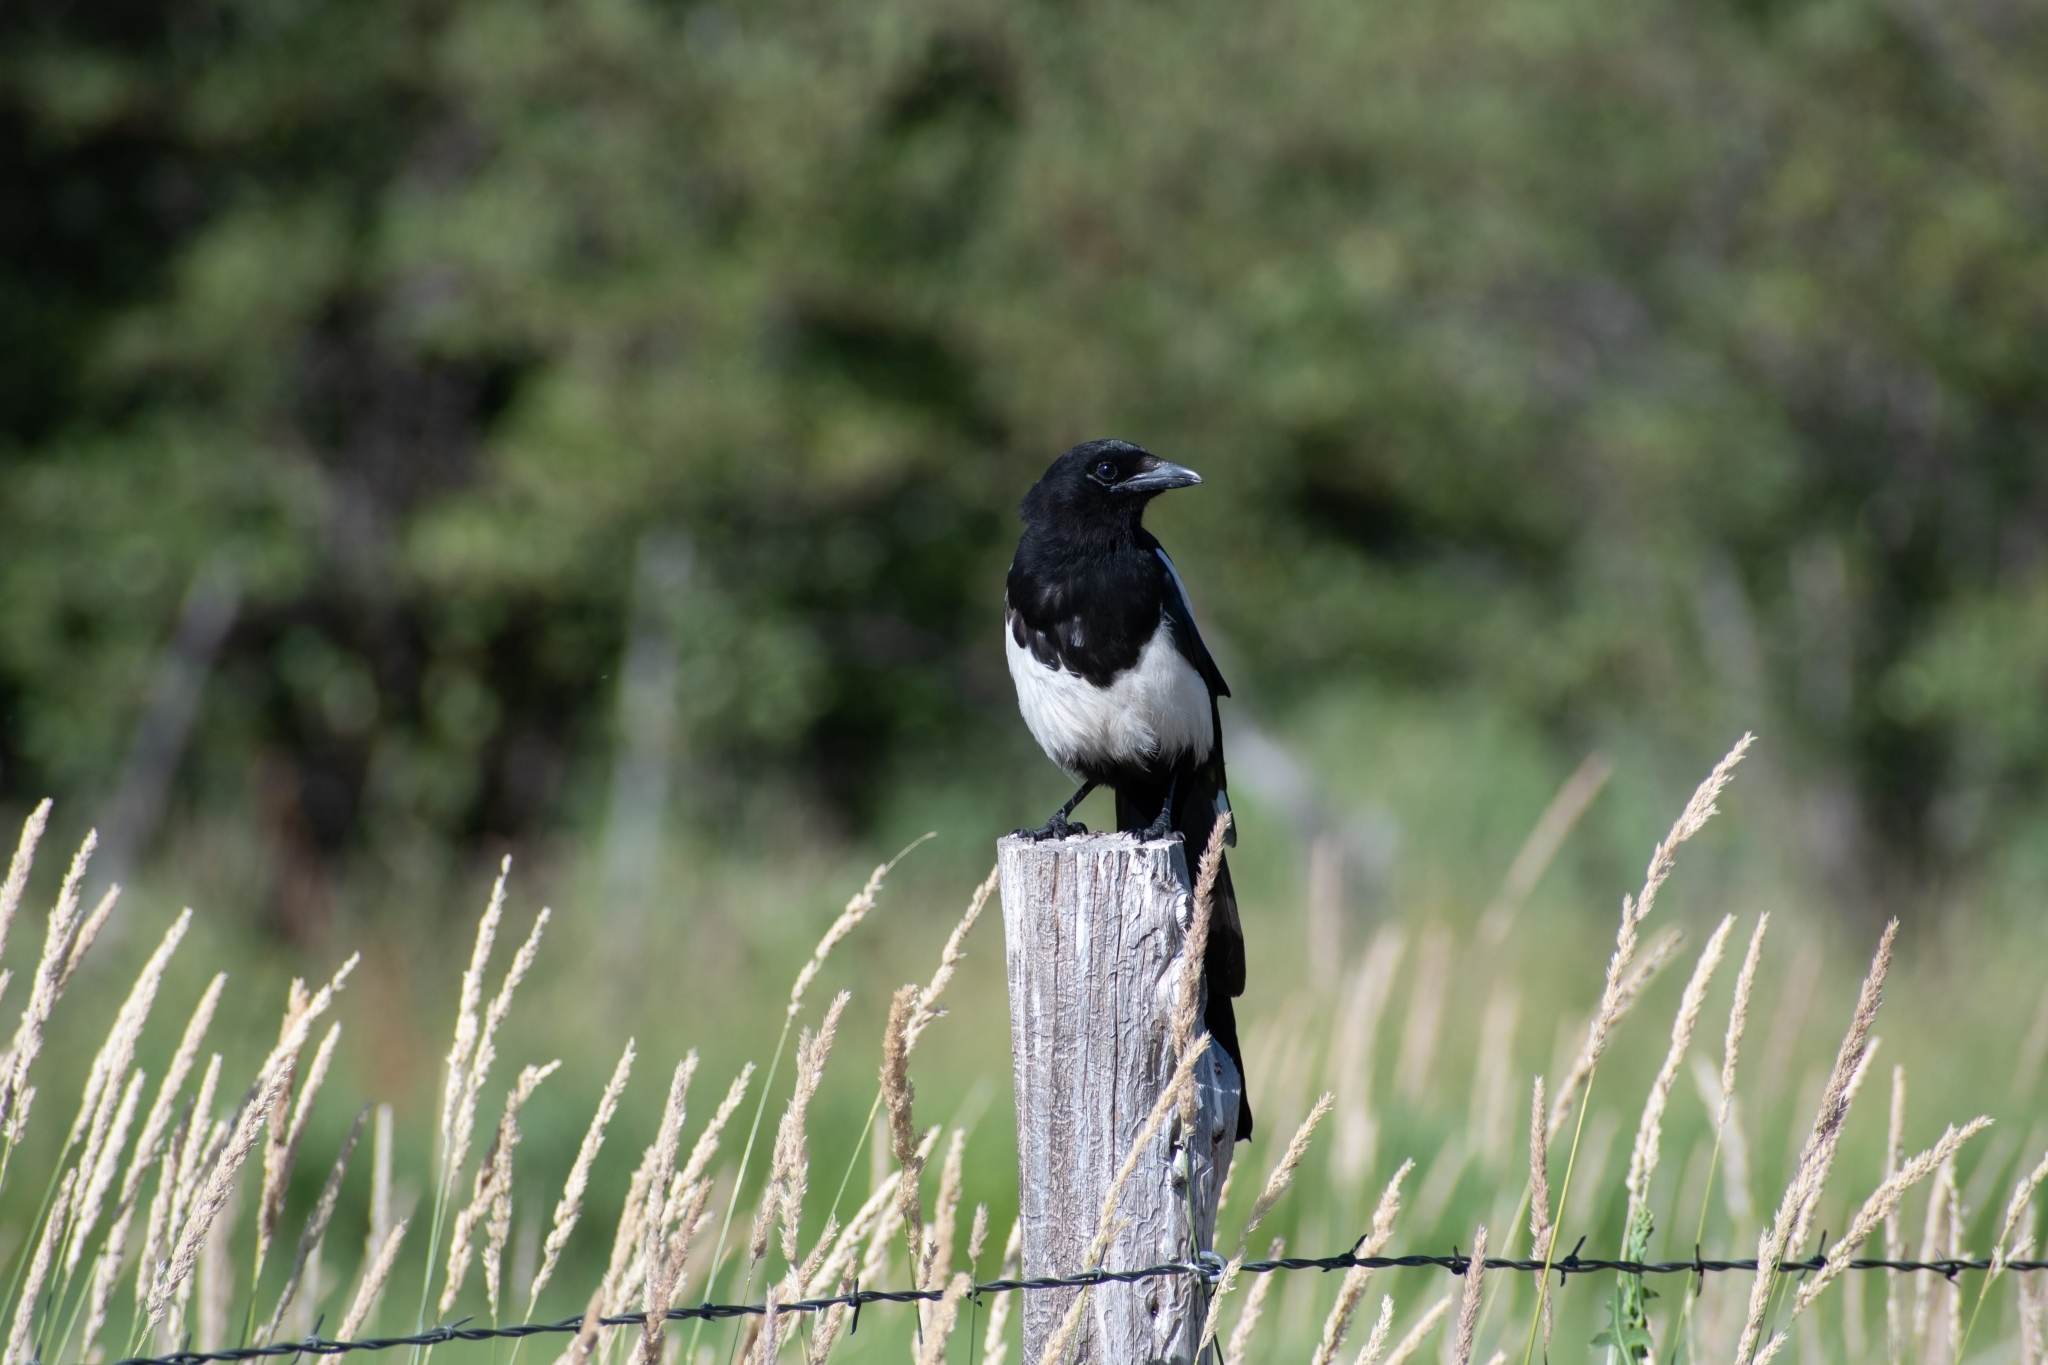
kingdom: Animalia
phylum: Chordata
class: Aves
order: Passeriformes
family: Corvidae
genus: Pica
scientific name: Pica hudsonia
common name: Black-billed magpie
